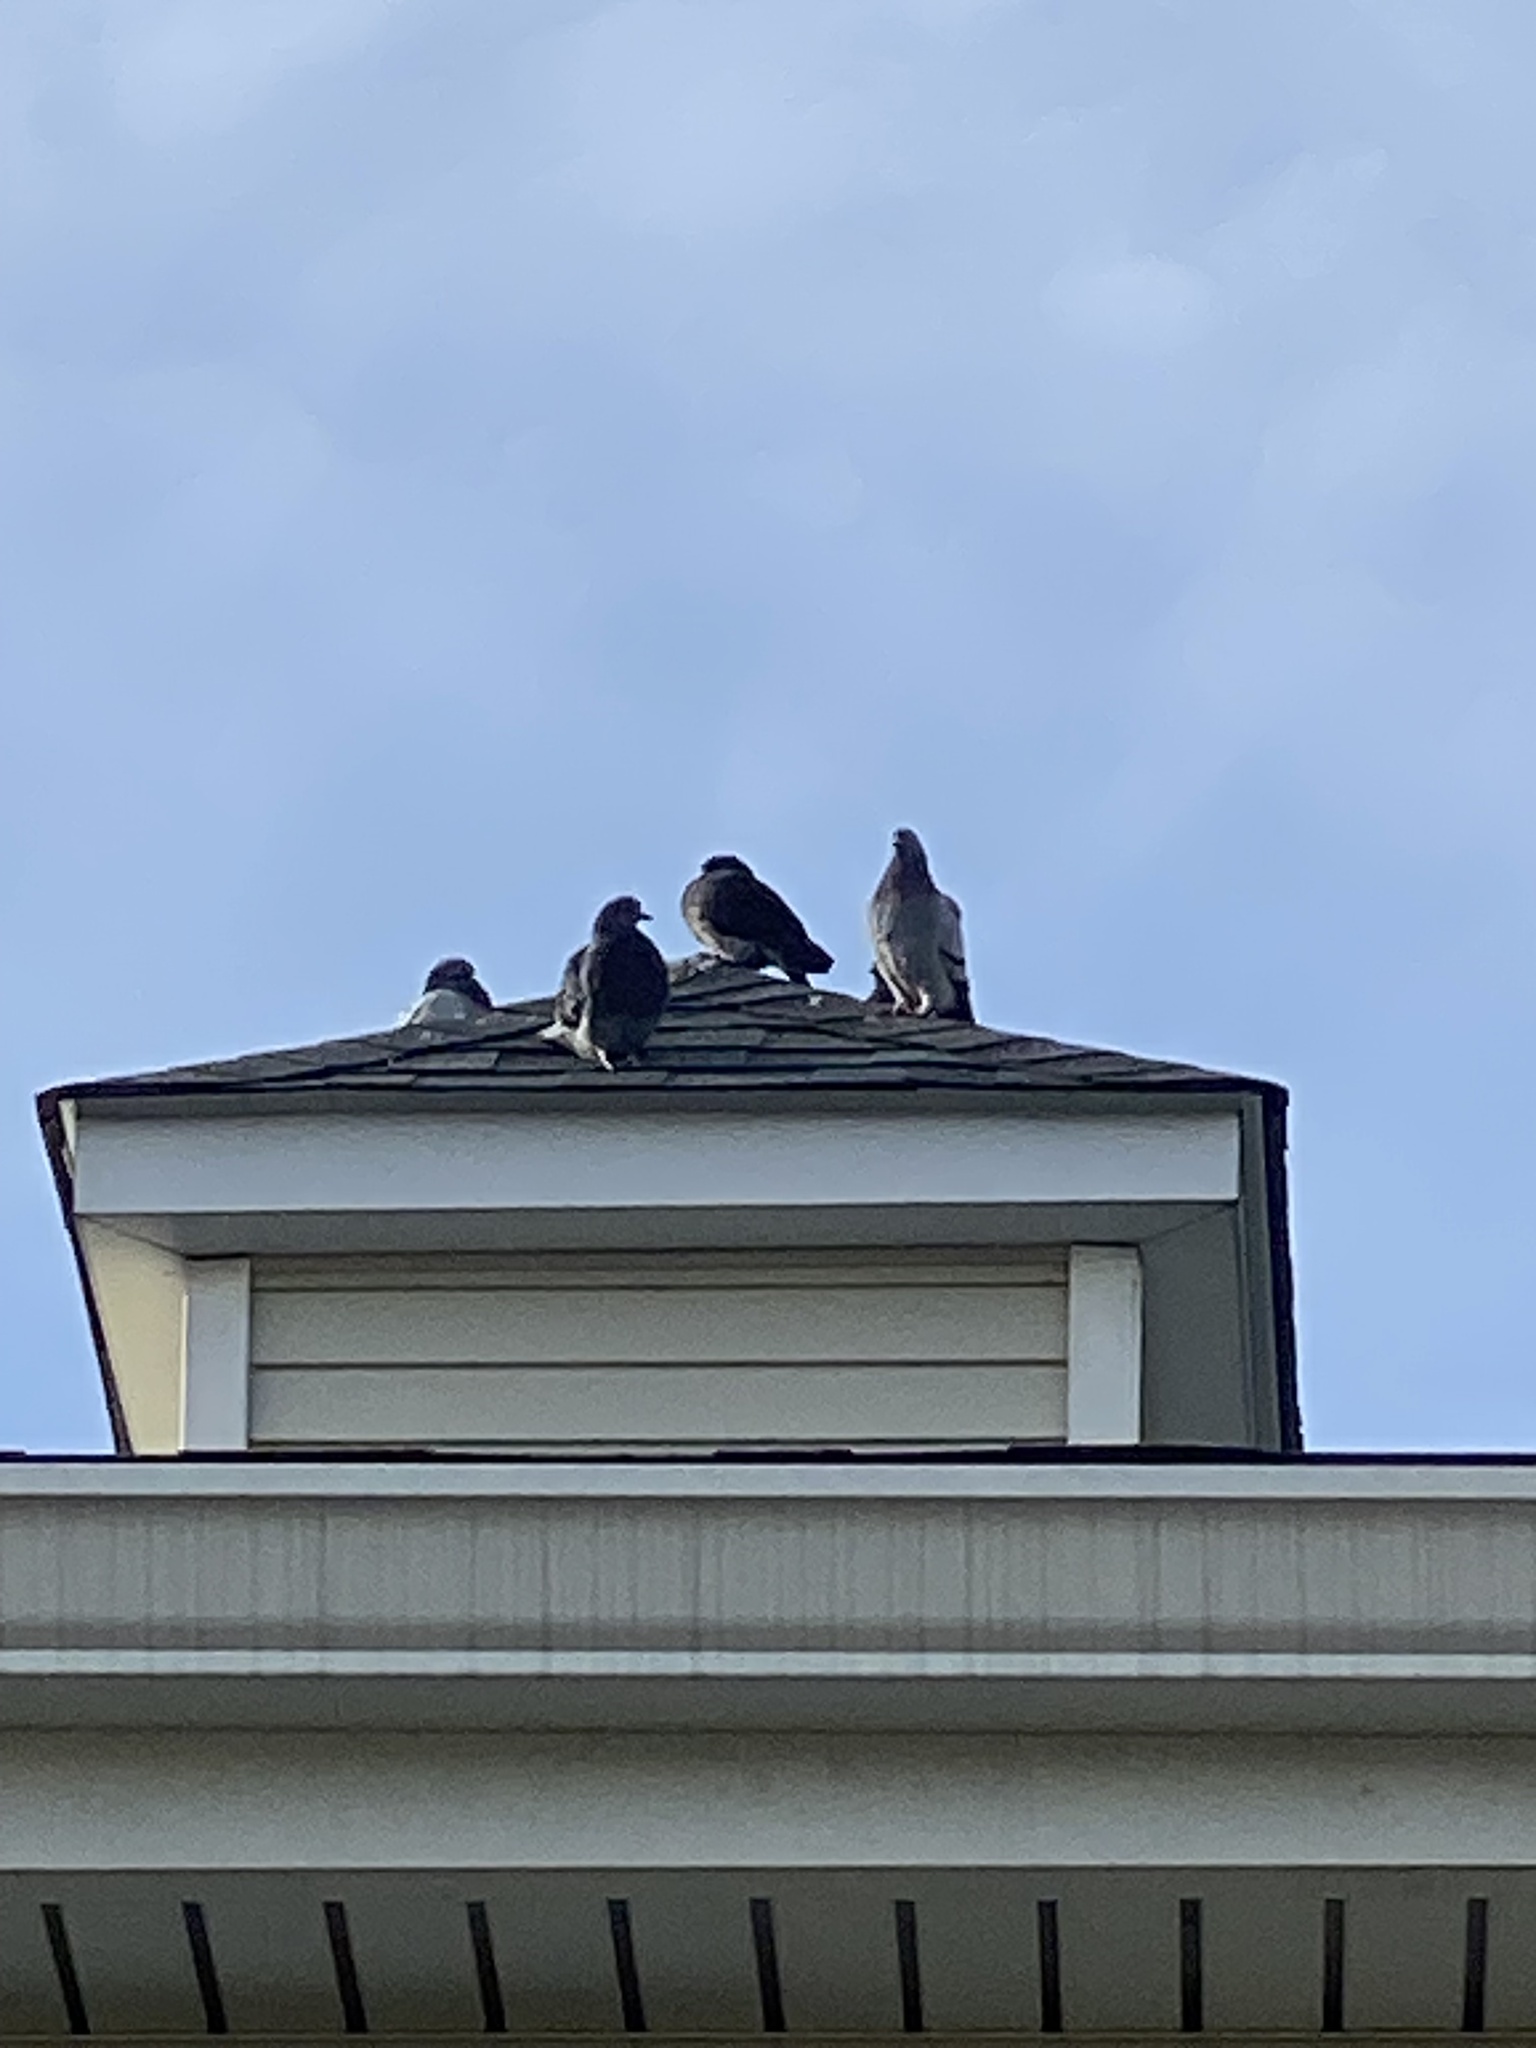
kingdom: Animalia
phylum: Chordata
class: Aves
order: Columbiformes
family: Columbidae
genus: Columba
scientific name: Columba livia
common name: Rock pigeon
